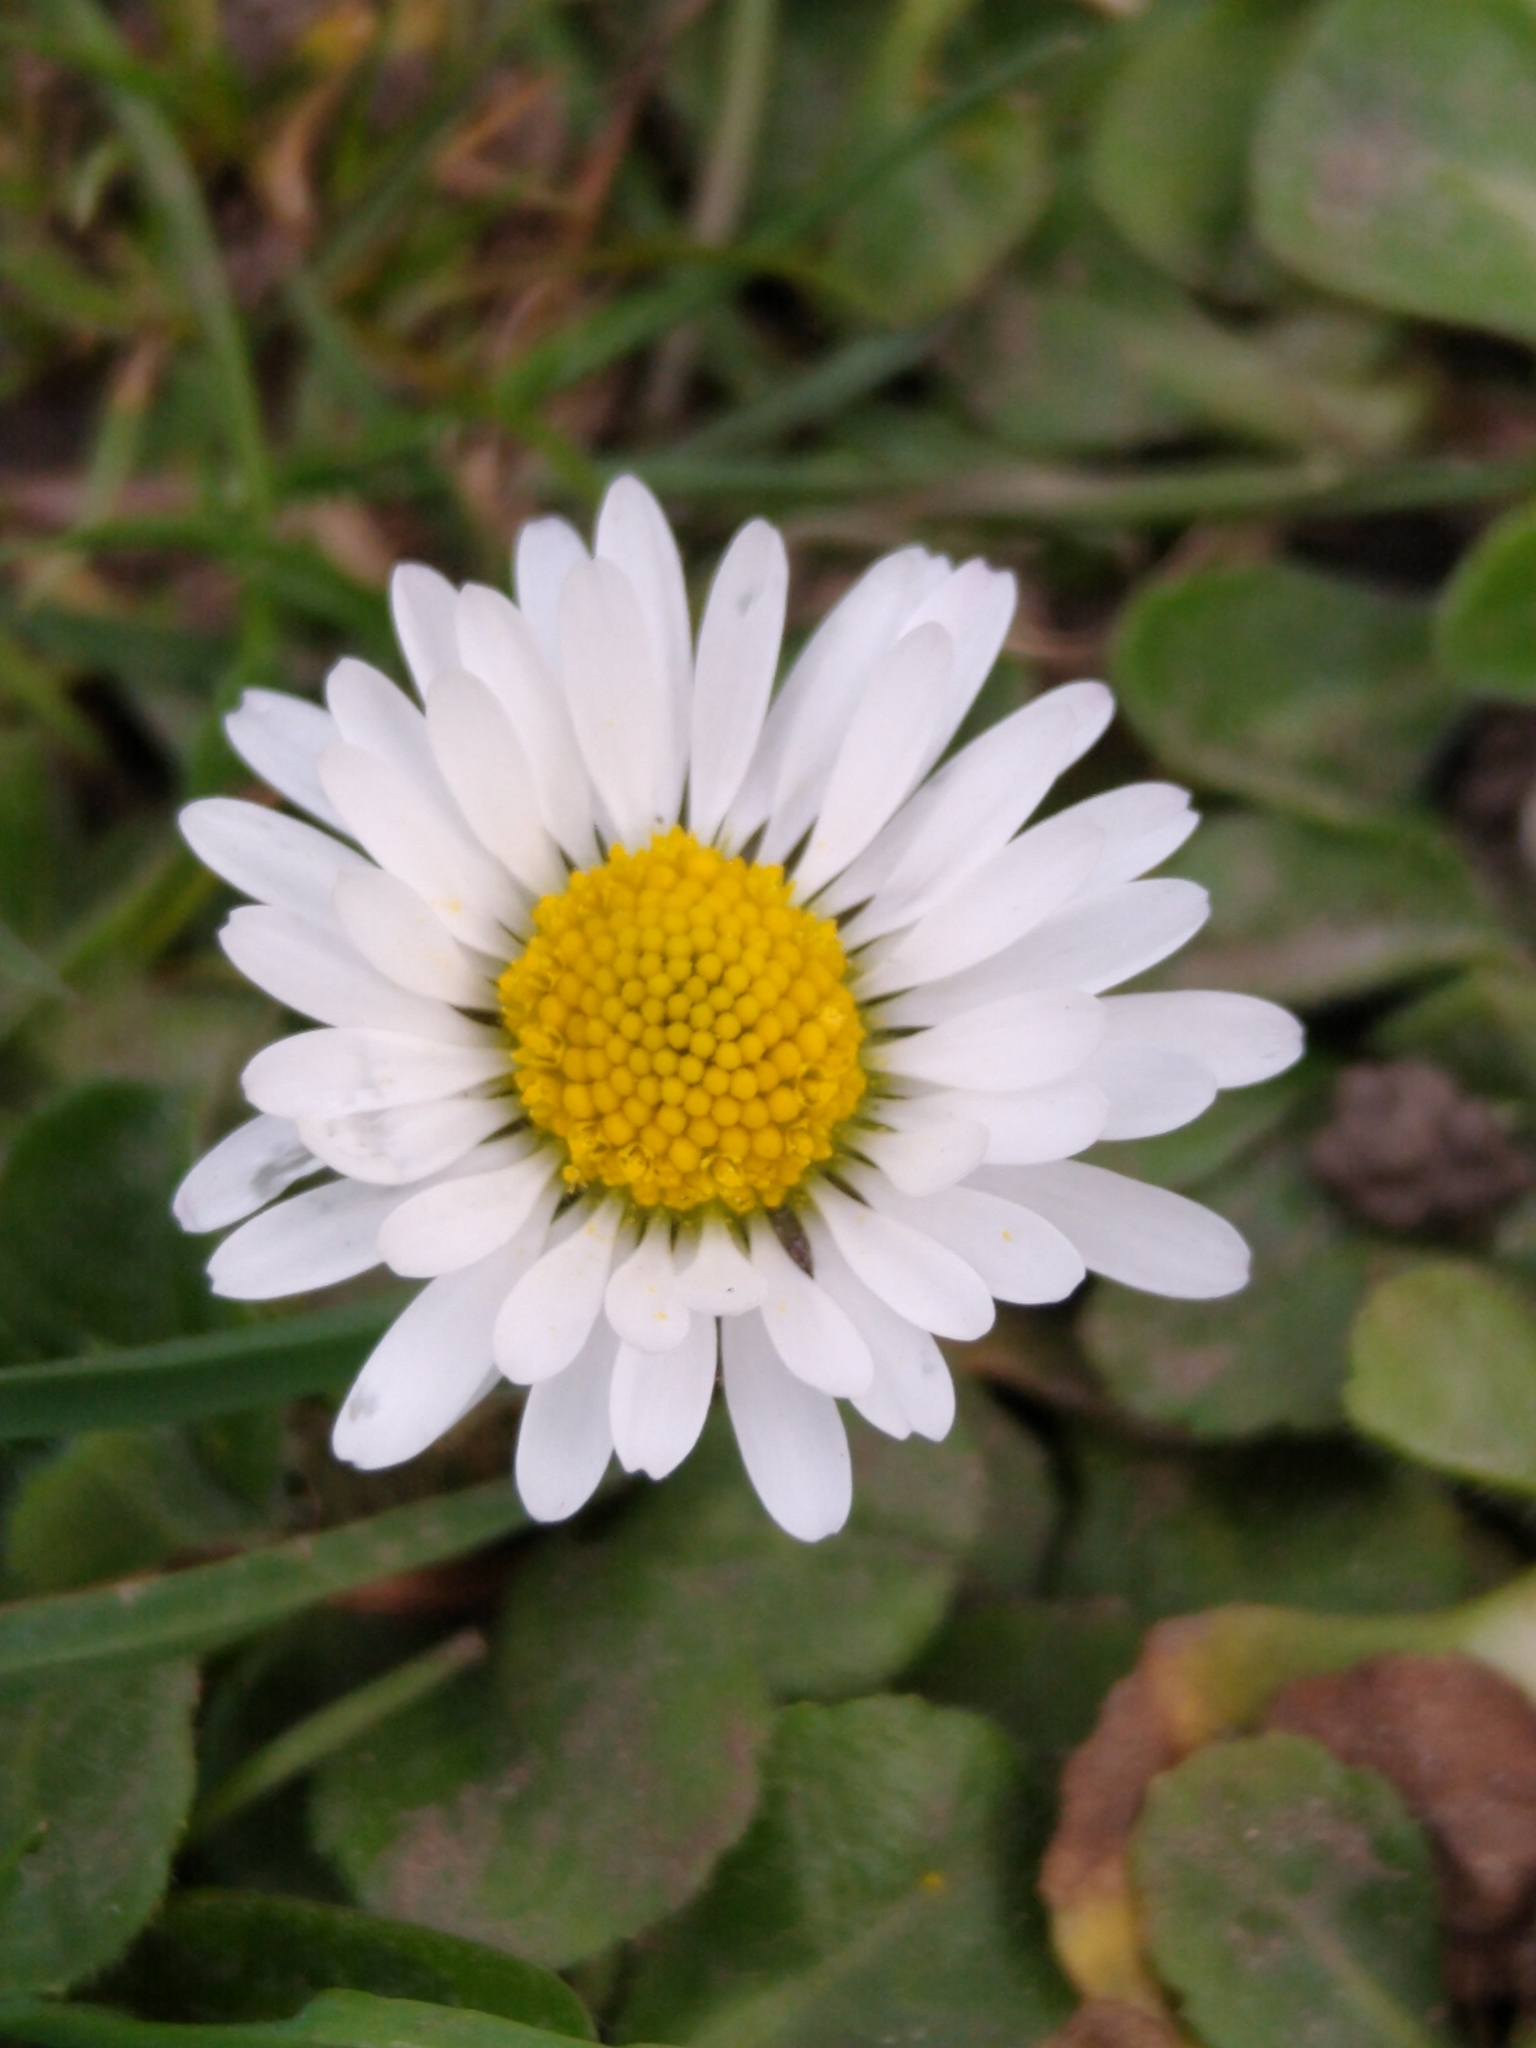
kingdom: Plantae
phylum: Tracheophyta
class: Magnoliopsida
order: Asterales
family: Asteraceae
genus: Bellis
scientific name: Bellis perennis
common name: Lawndaisy
